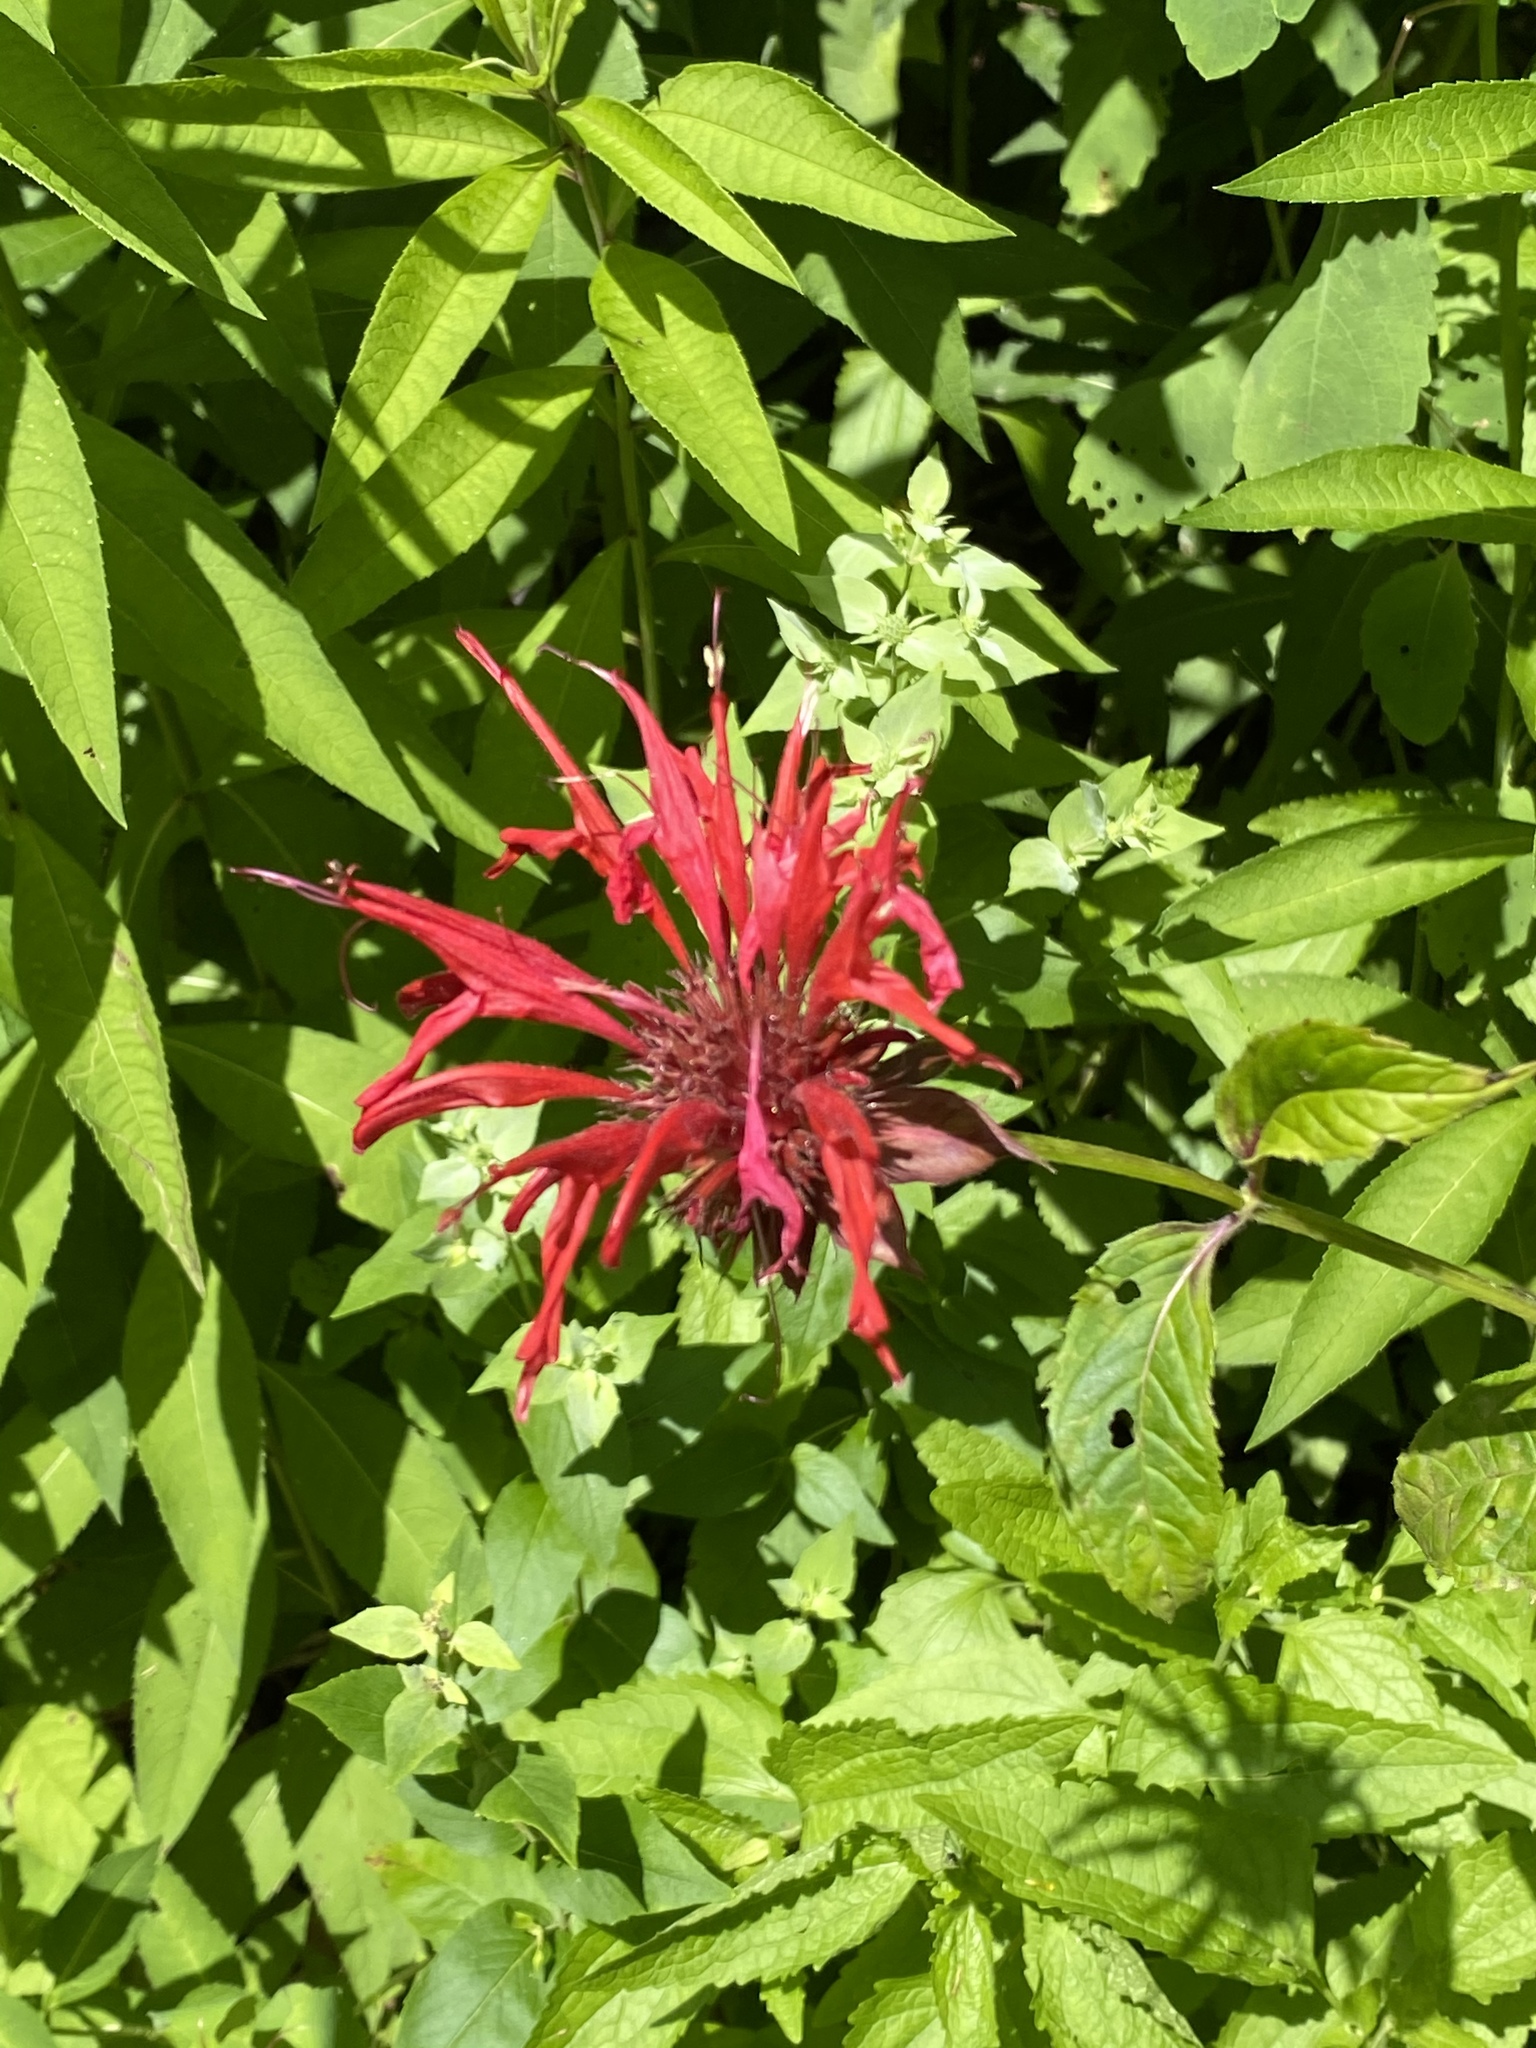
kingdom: Plantae
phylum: Tracheophyta
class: Magnoliopsida
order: Lamiales
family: Lamiaceae
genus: Monarda
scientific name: Monarda didyma
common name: Beebalm
